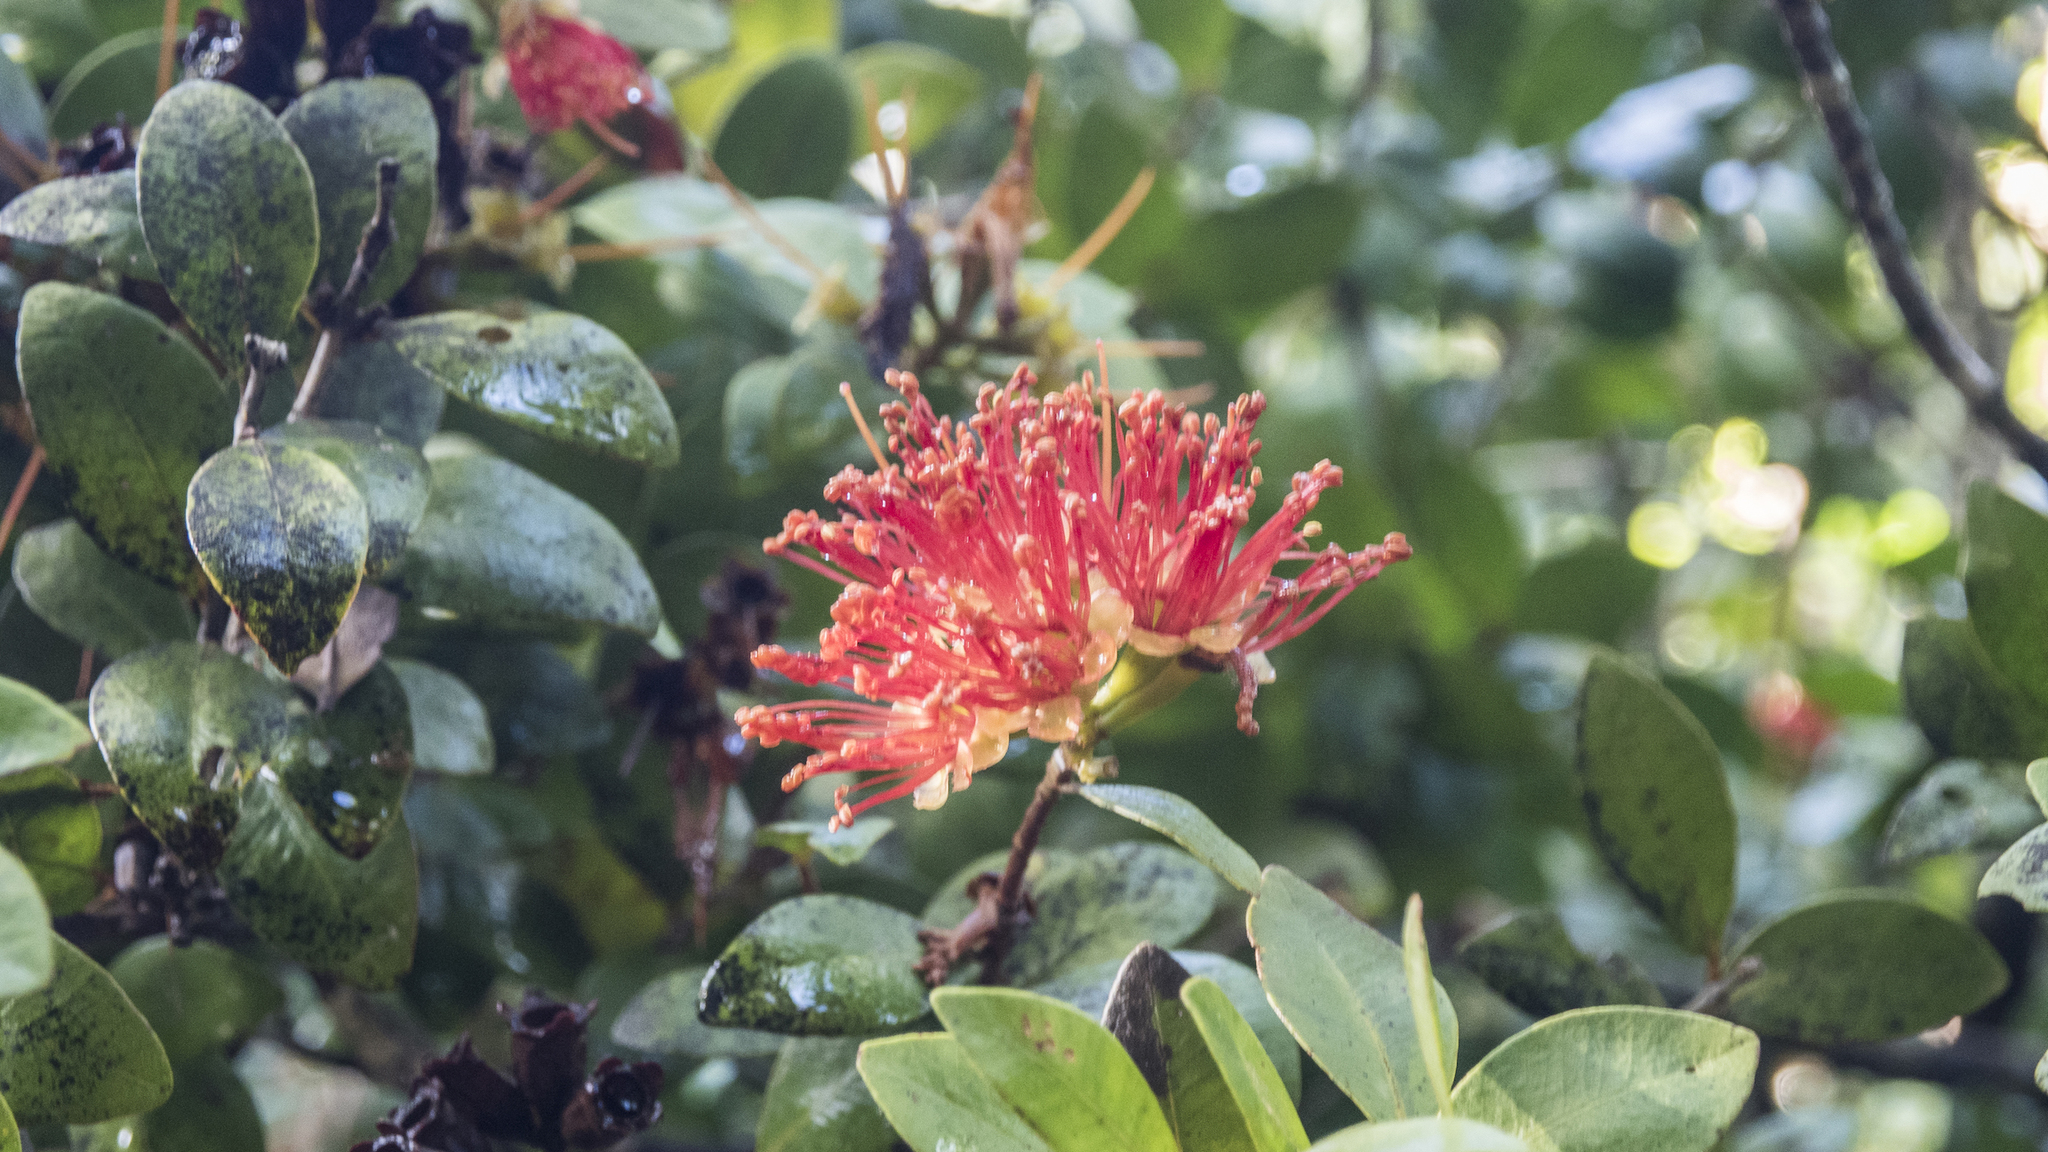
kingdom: Plantae
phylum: Tracheophyta
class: Magnoliopsida
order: Myrtales
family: Myrtaceae
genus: Metrosideros
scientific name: Metrosideros fulgens
